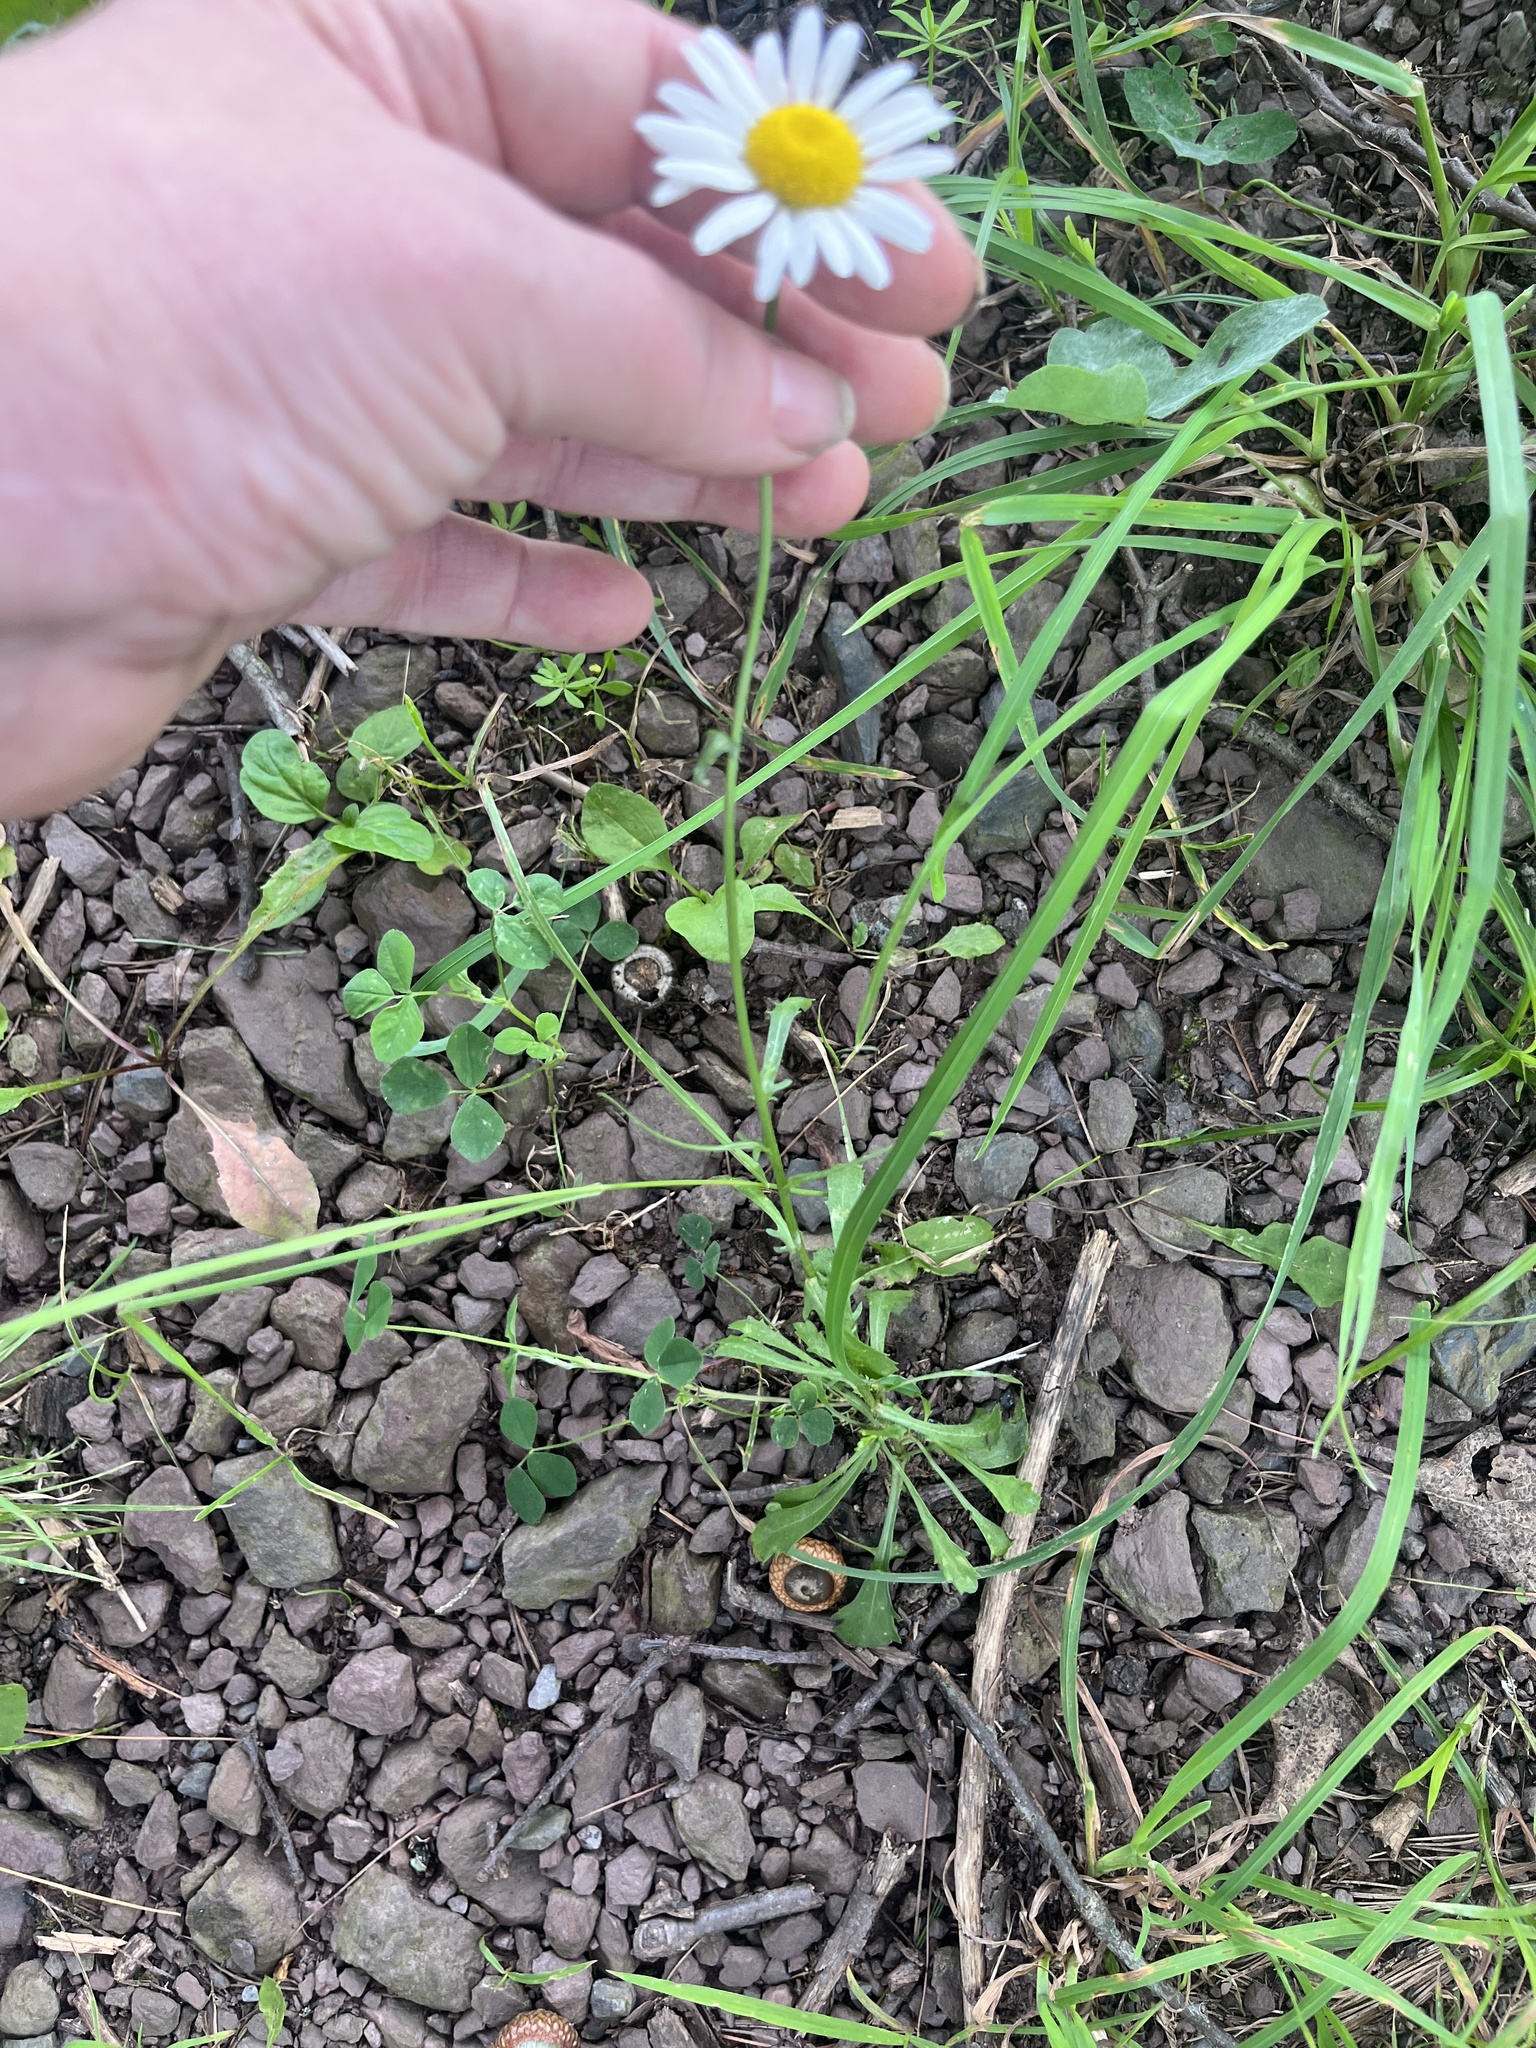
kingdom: Plantae
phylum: Tracheophyta
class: Magnoliopsida
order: Asterales
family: Asteraceae
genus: Leucanthemum
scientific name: Leucanthemum vulgare
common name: Oxeye daisy
